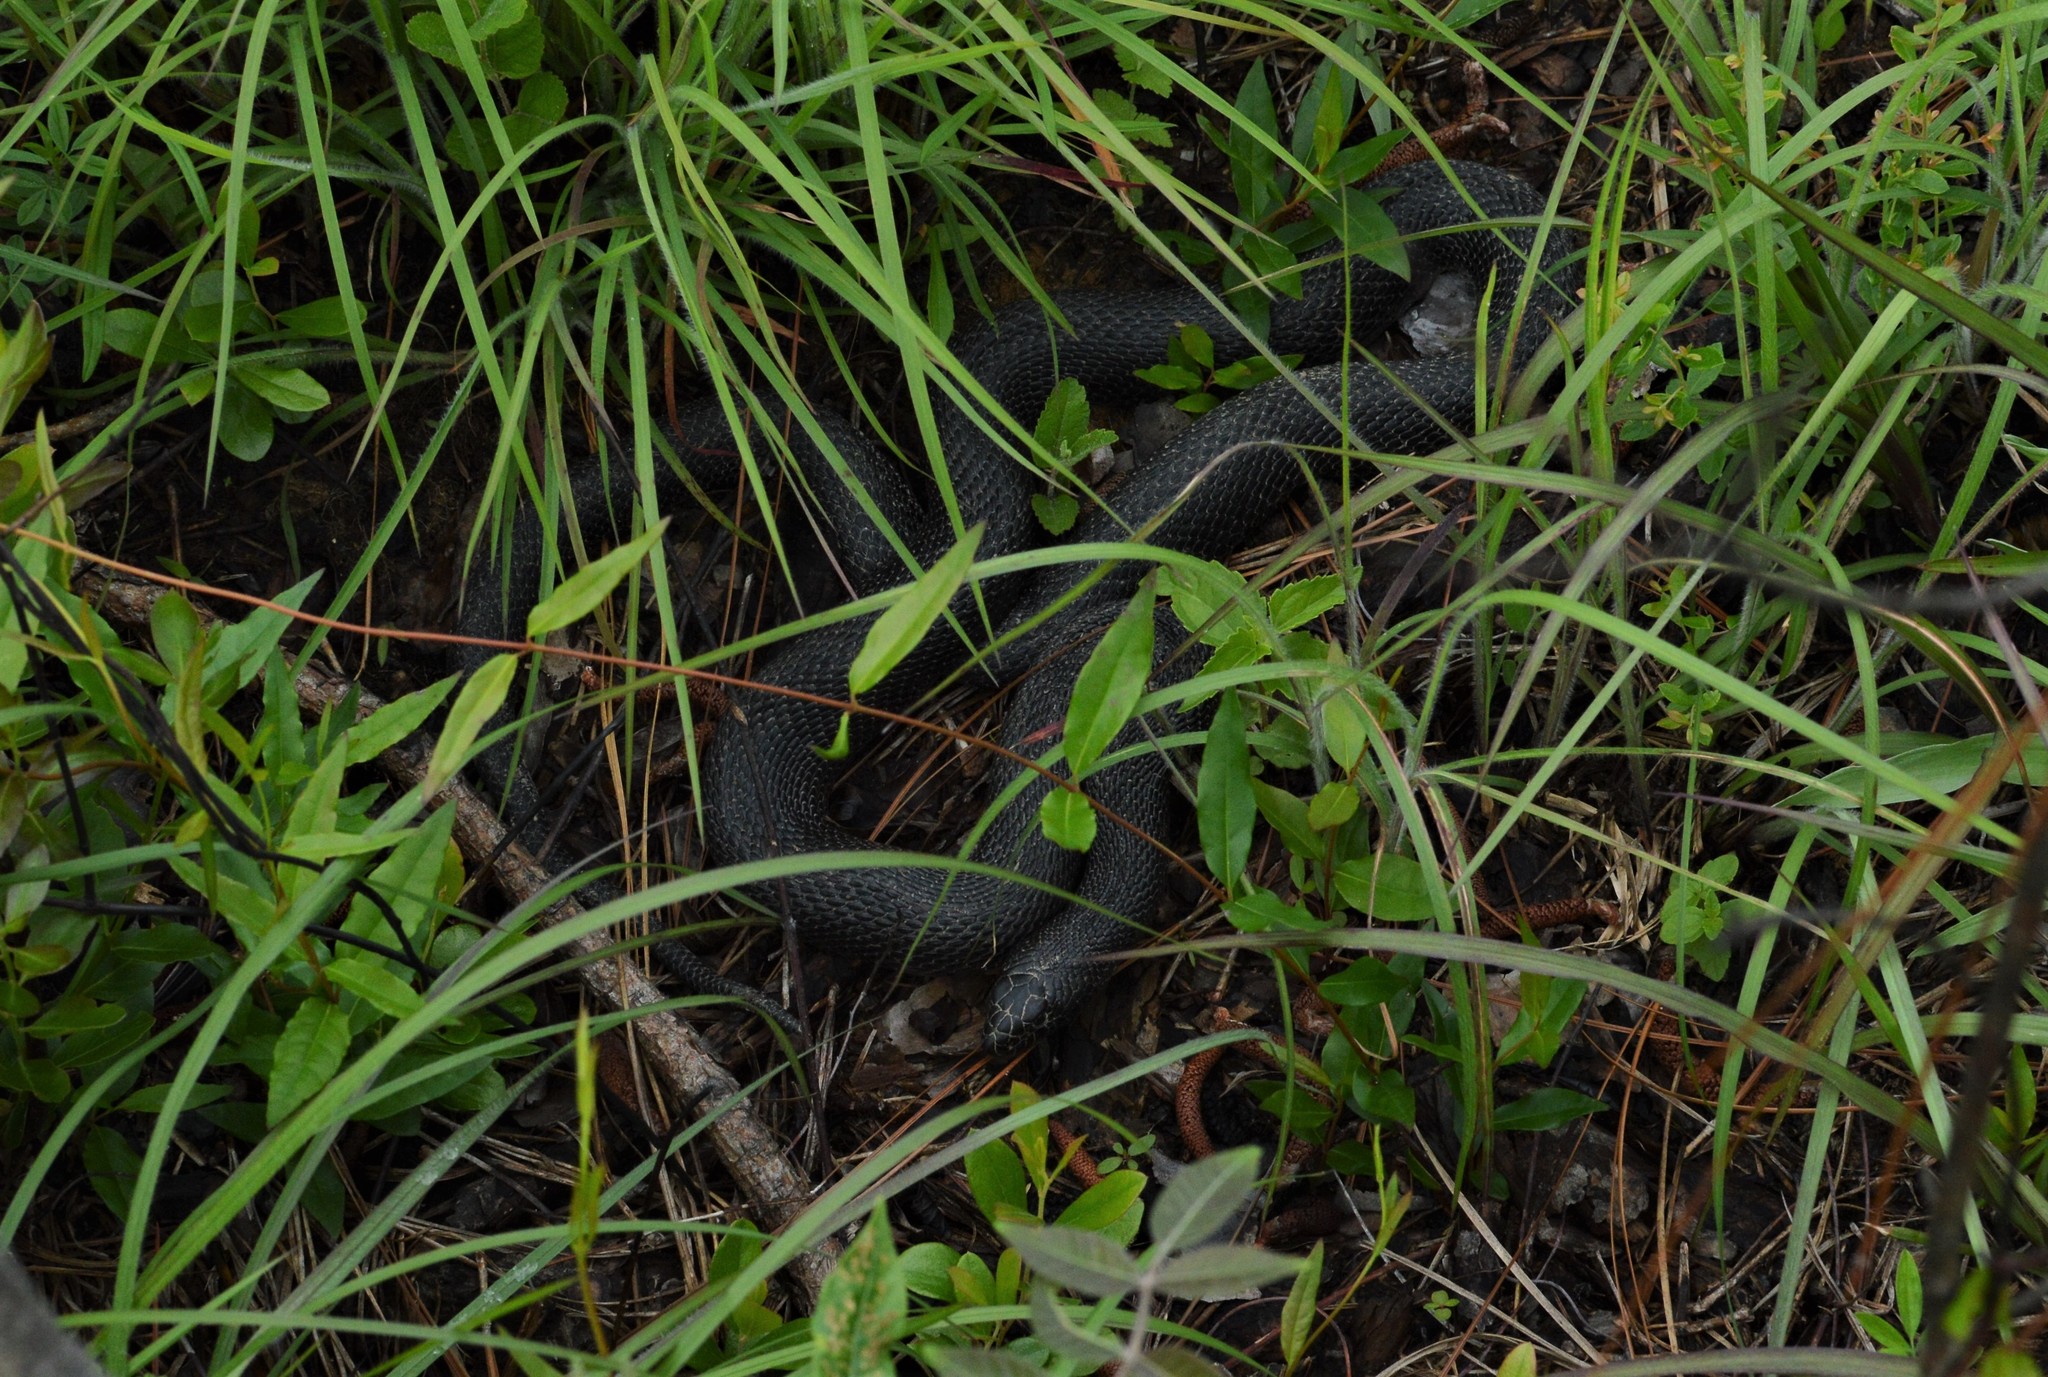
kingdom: Animalia
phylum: Chordata
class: Squamata
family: Colubridae
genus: Pituophis
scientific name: Pituophis melanoleucus
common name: Pine snake
